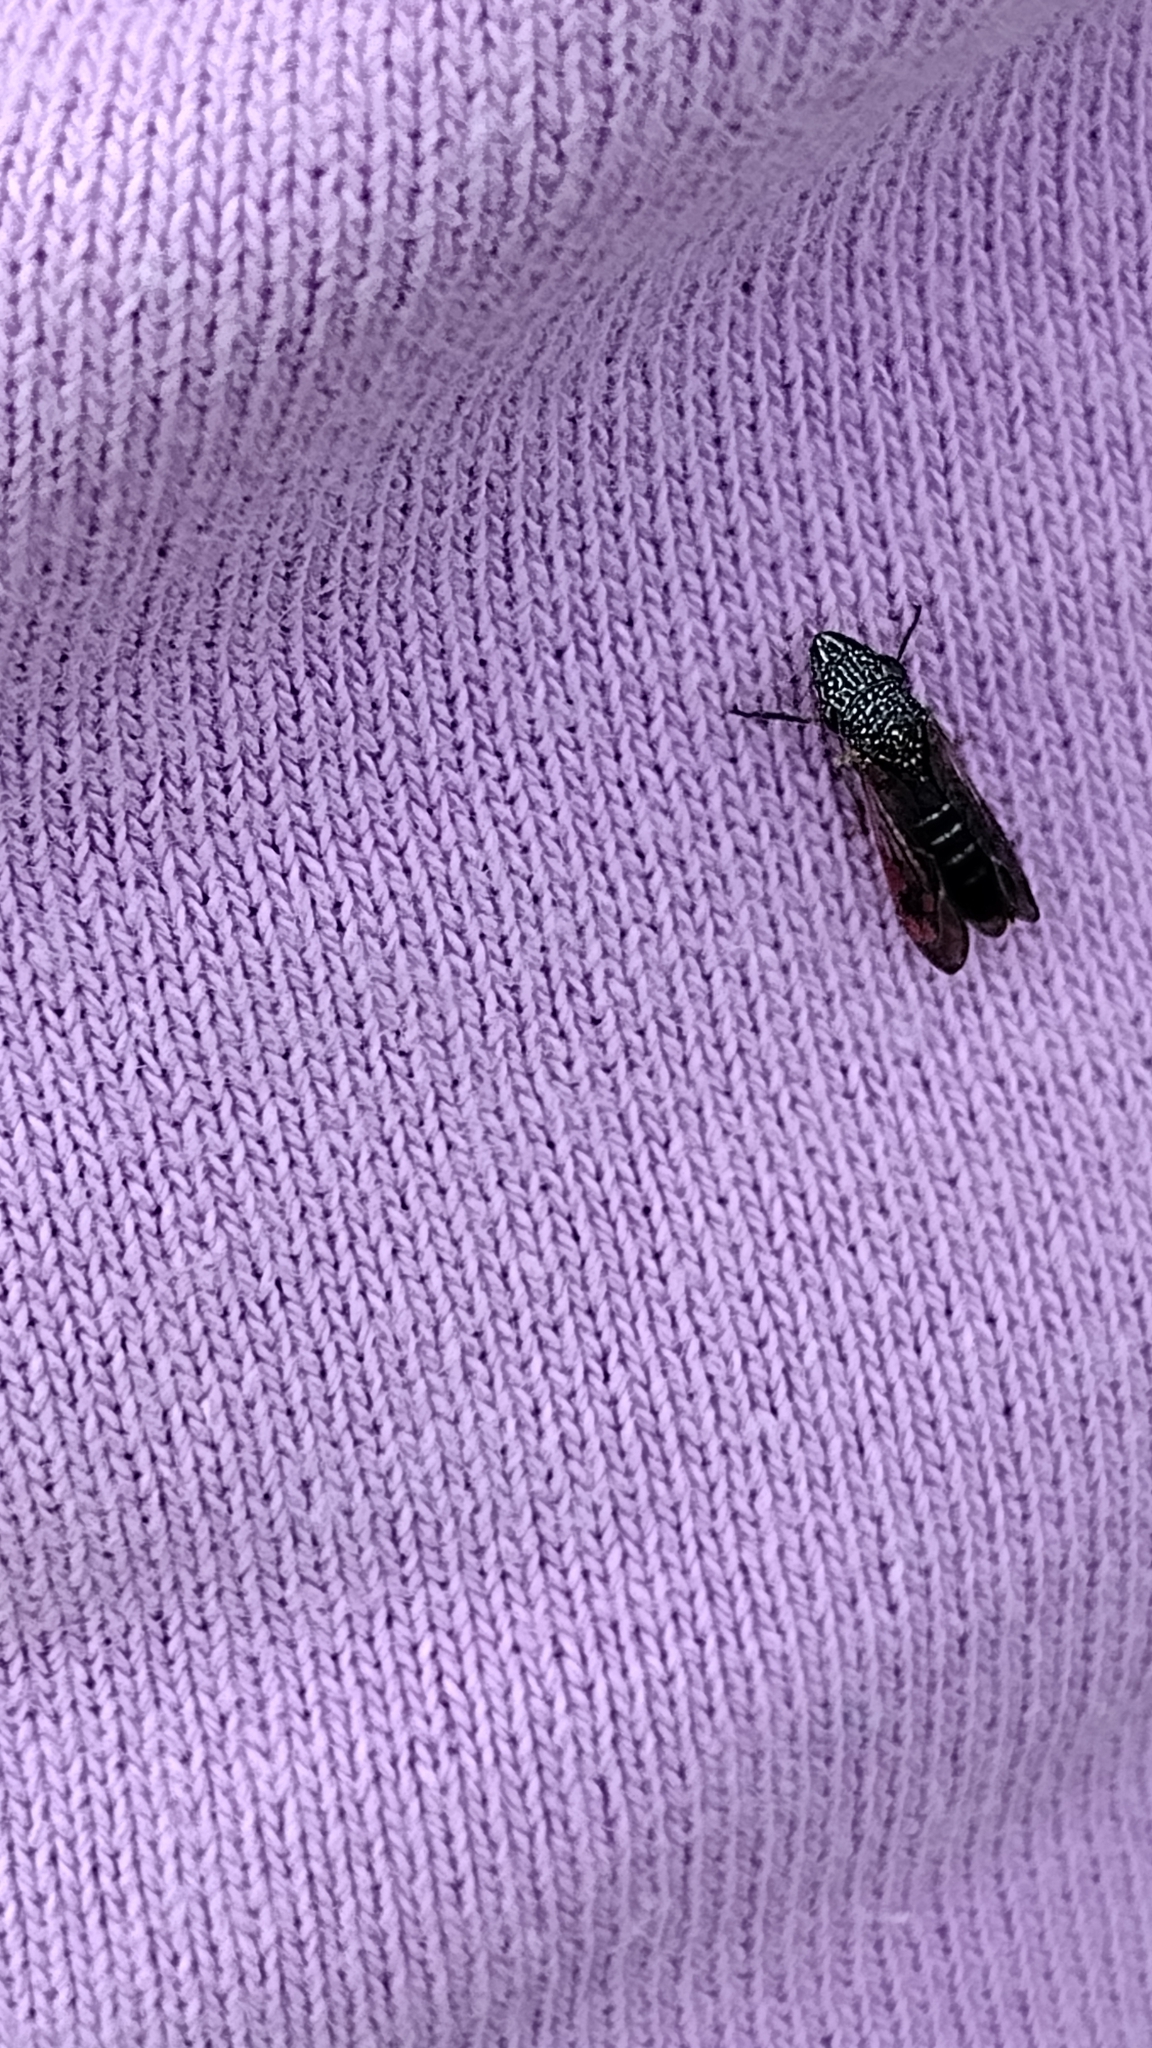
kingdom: Animalia
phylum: Arthropoda
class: Insecta
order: Hemiptera
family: Cicadellidae
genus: Homalodisca
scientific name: Homalodisca liturata
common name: Lacertate sharpshooter
